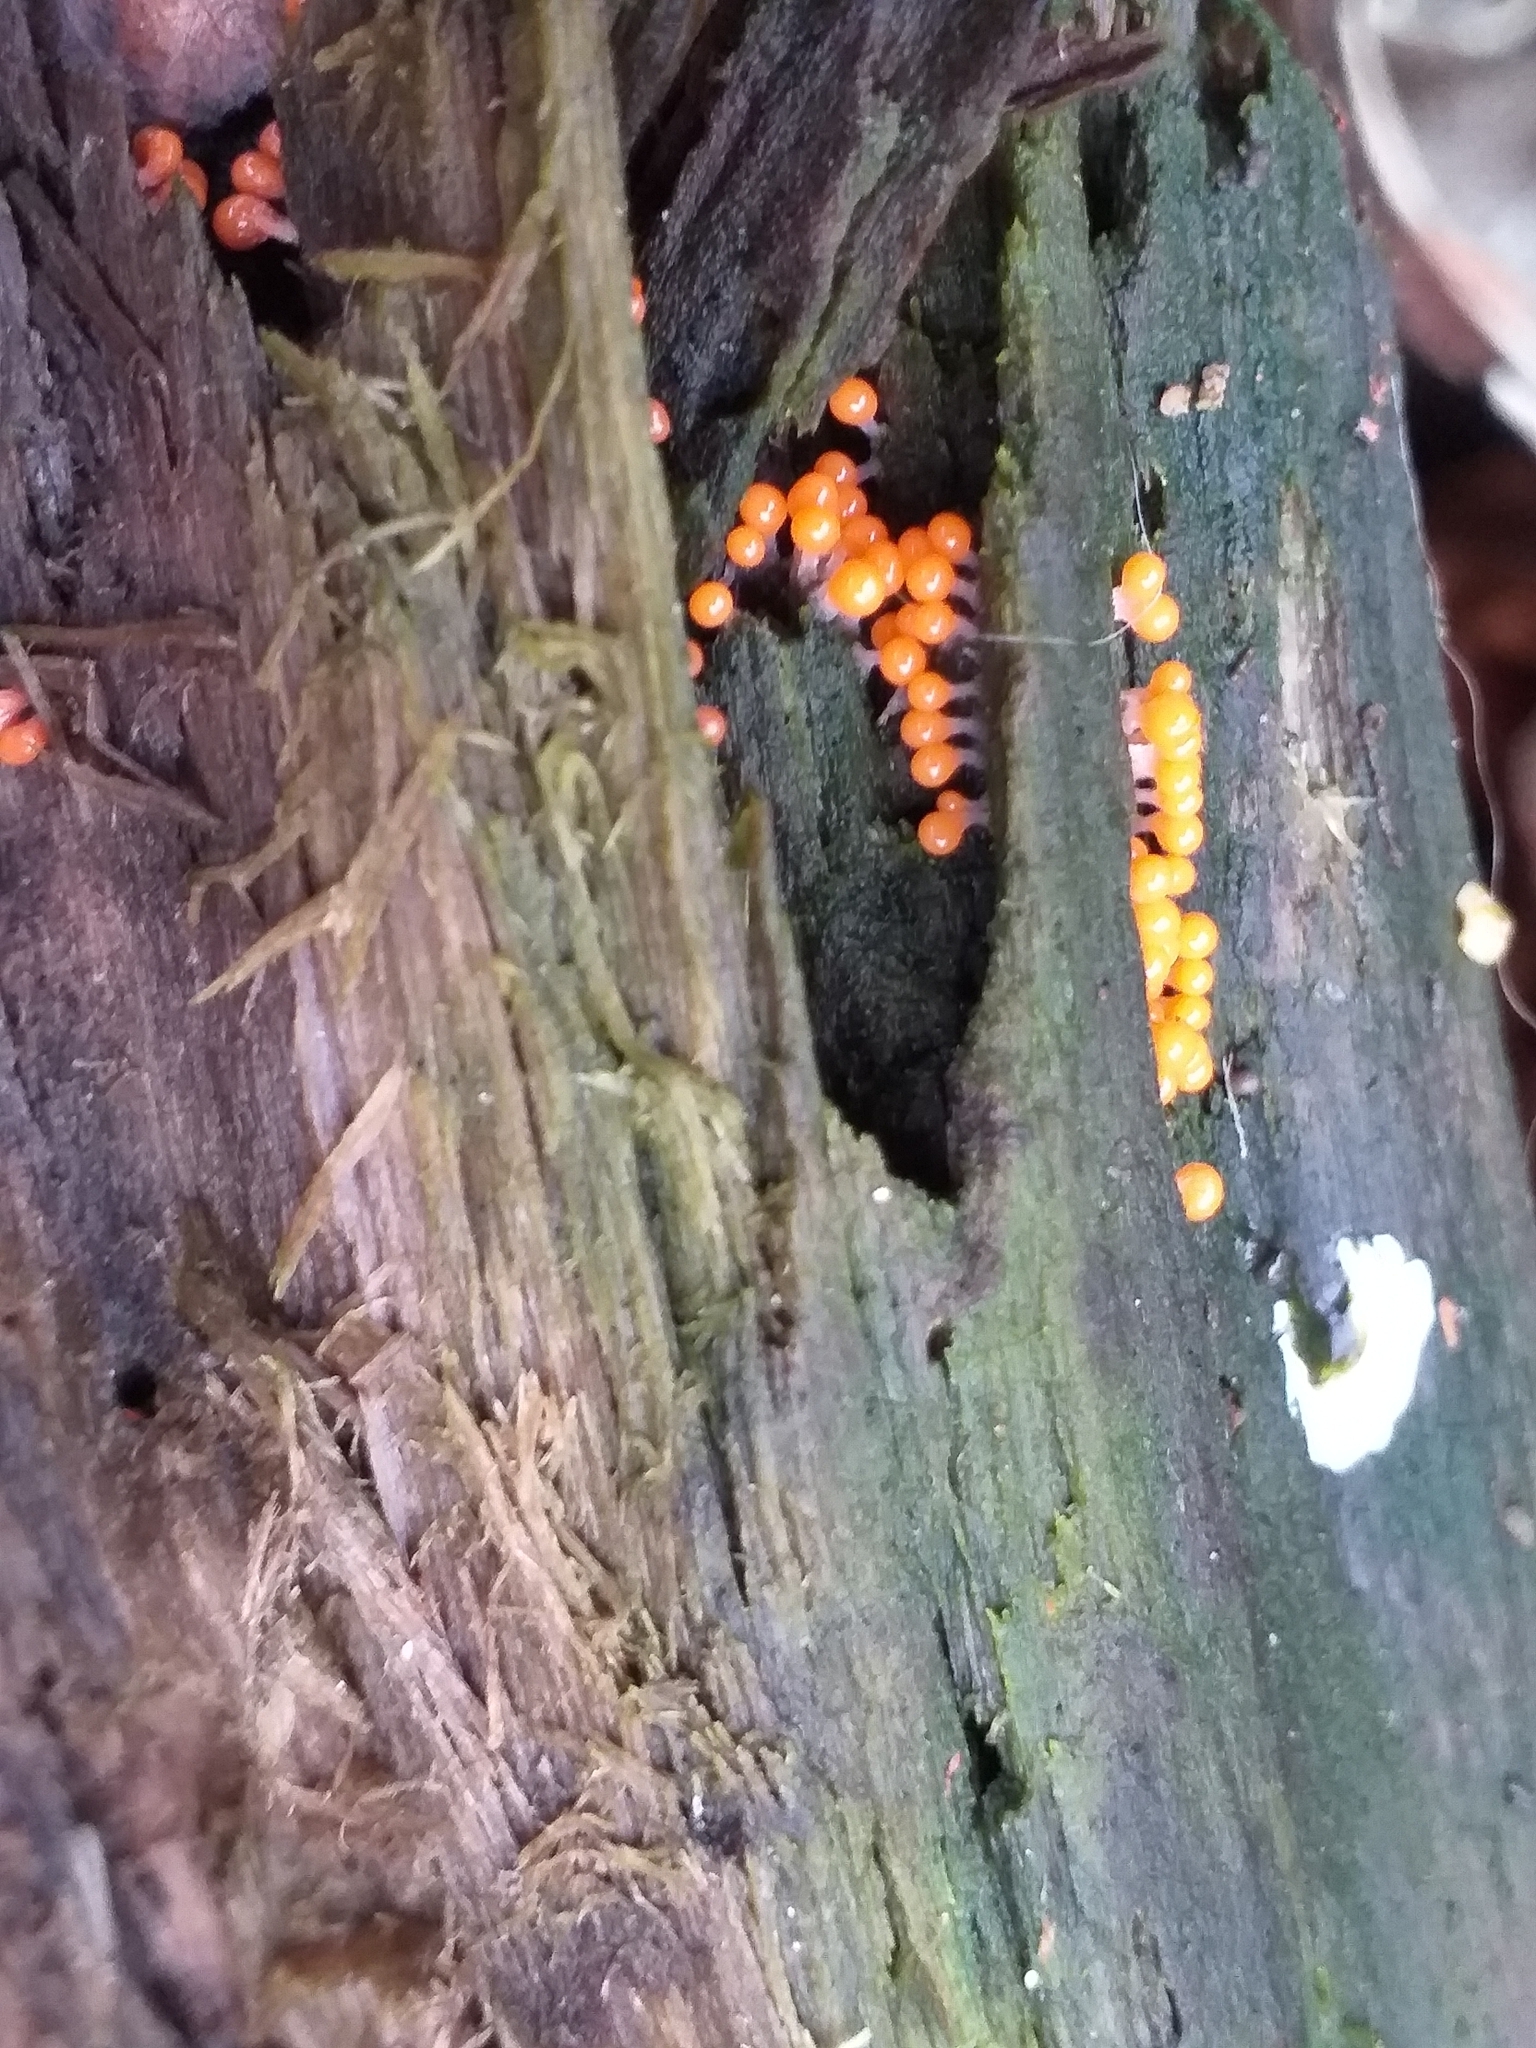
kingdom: Protozoa
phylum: Mycetozoa
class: Myxomycetes
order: Trichiales
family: Arcyriaceae
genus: Hemitrichia
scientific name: Hemitrichia decipiens
